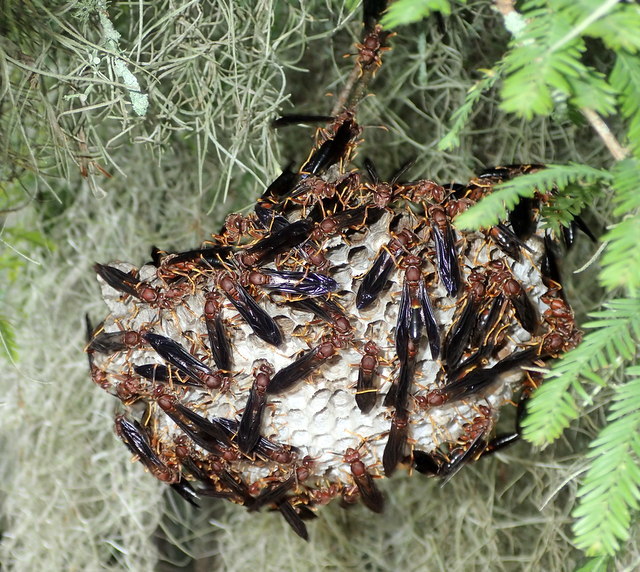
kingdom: Animalia
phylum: Arthropoda
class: Insecta
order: Hymenoptera
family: Eumenidae
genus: Polistes
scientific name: Polistes annularis
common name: Ringed paper wasp
